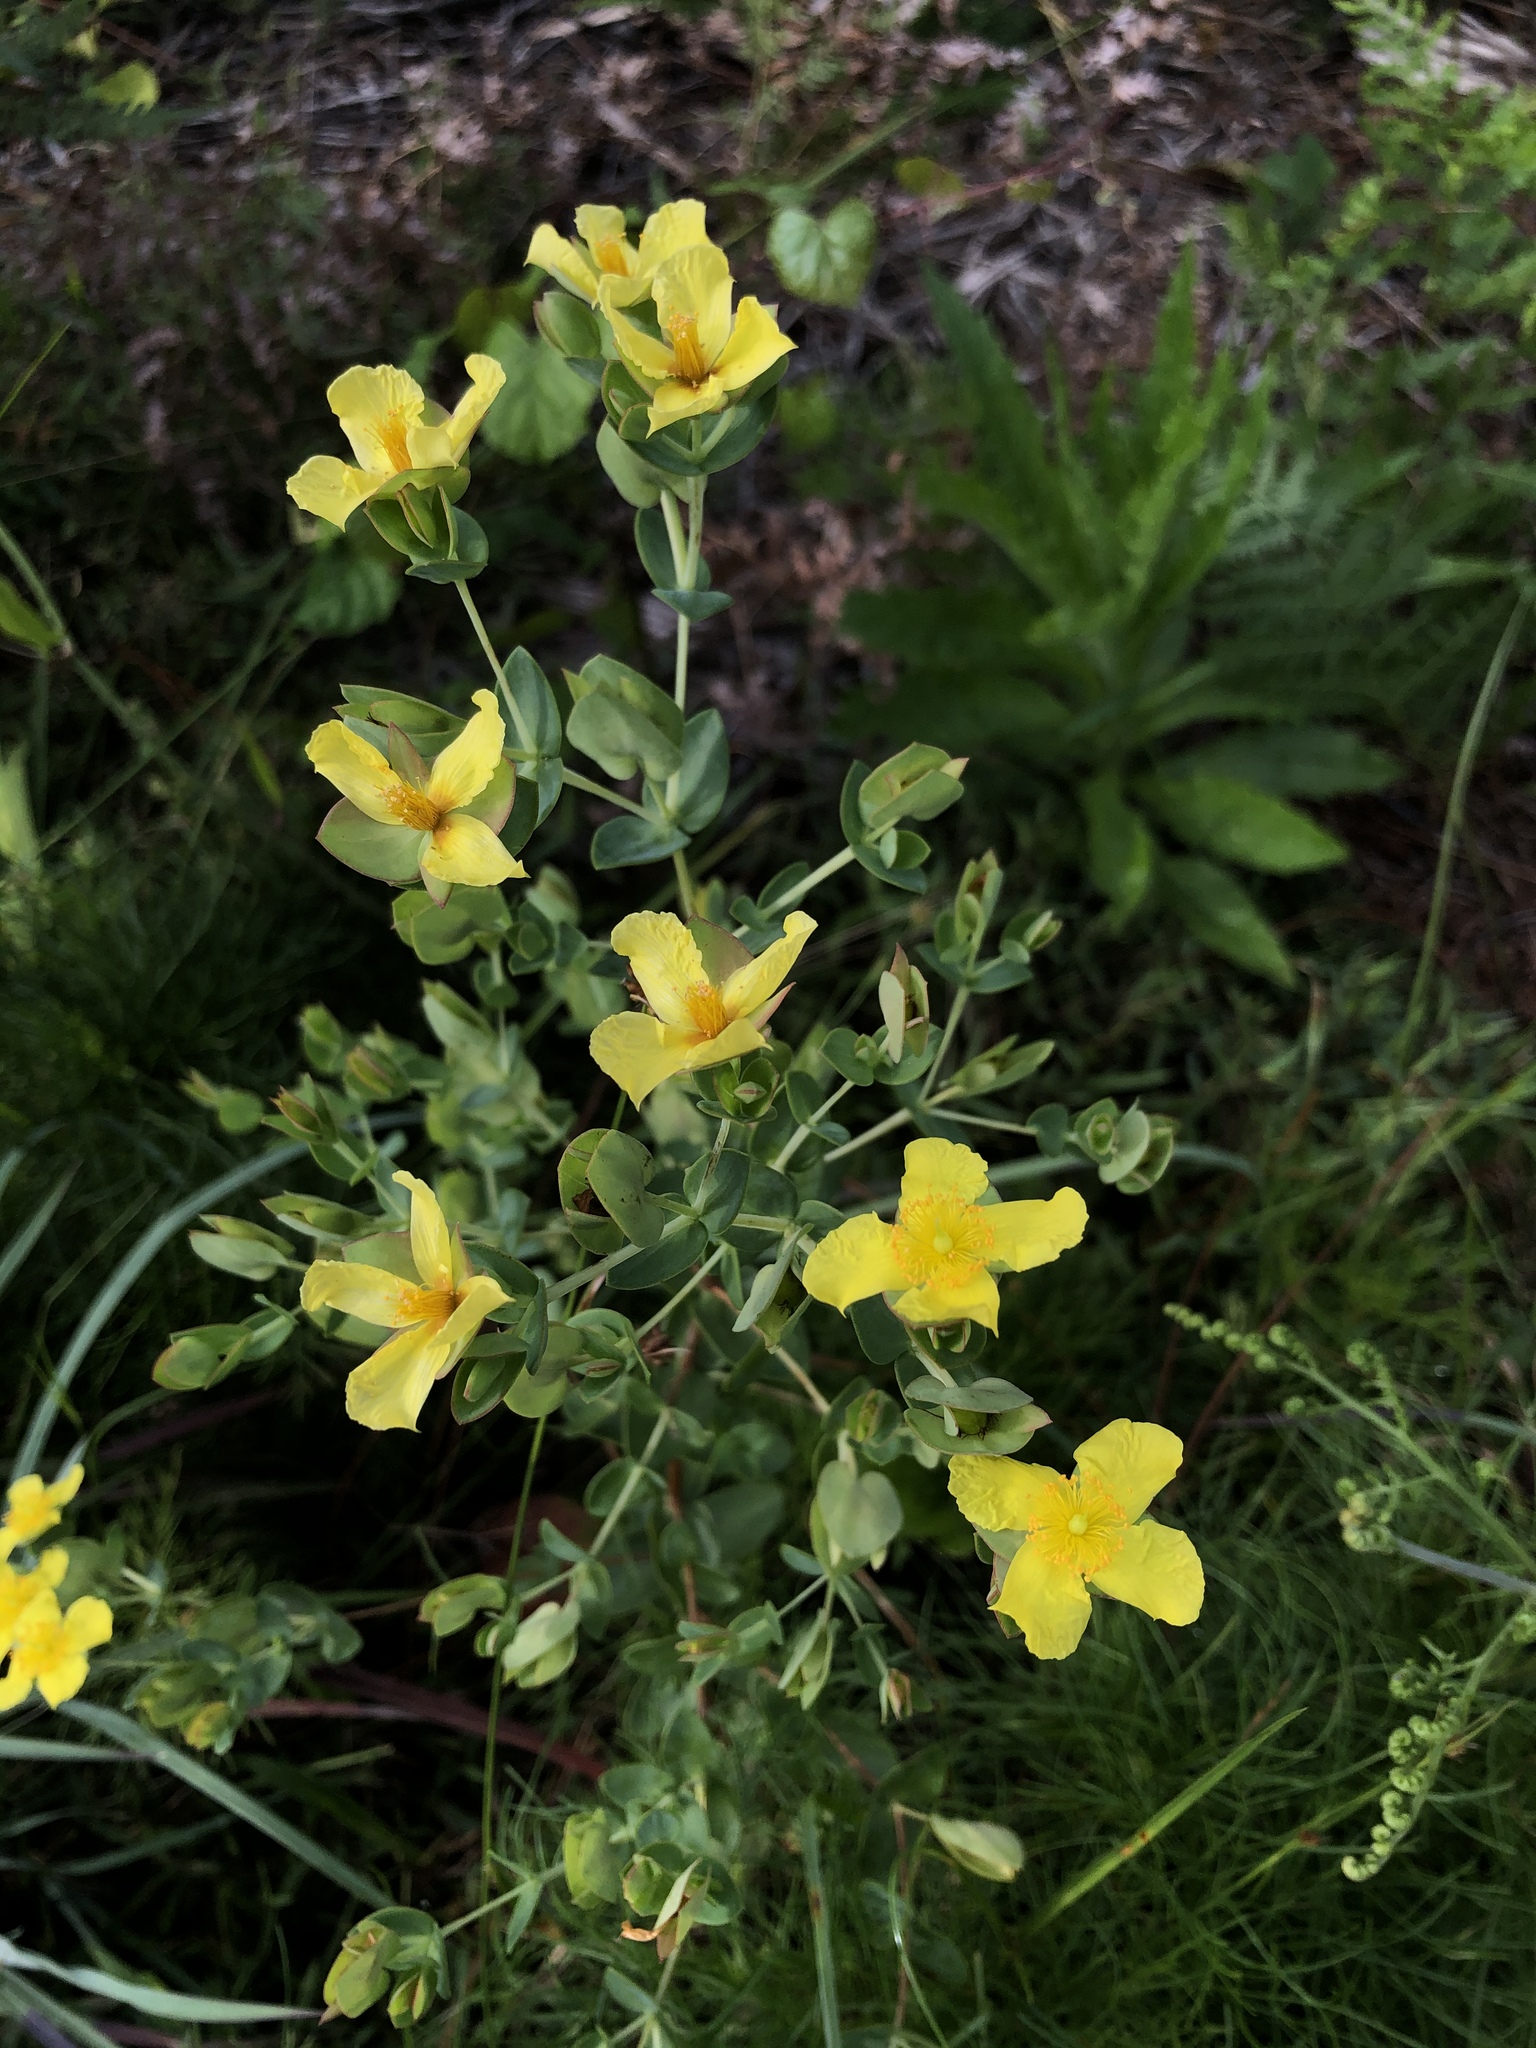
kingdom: Plantae
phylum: Tracheophyta
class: Magnoliopsida
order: Malpighiales
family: Hypericaceae
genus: Hypericum
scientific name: Hypericum tetrapetalum
